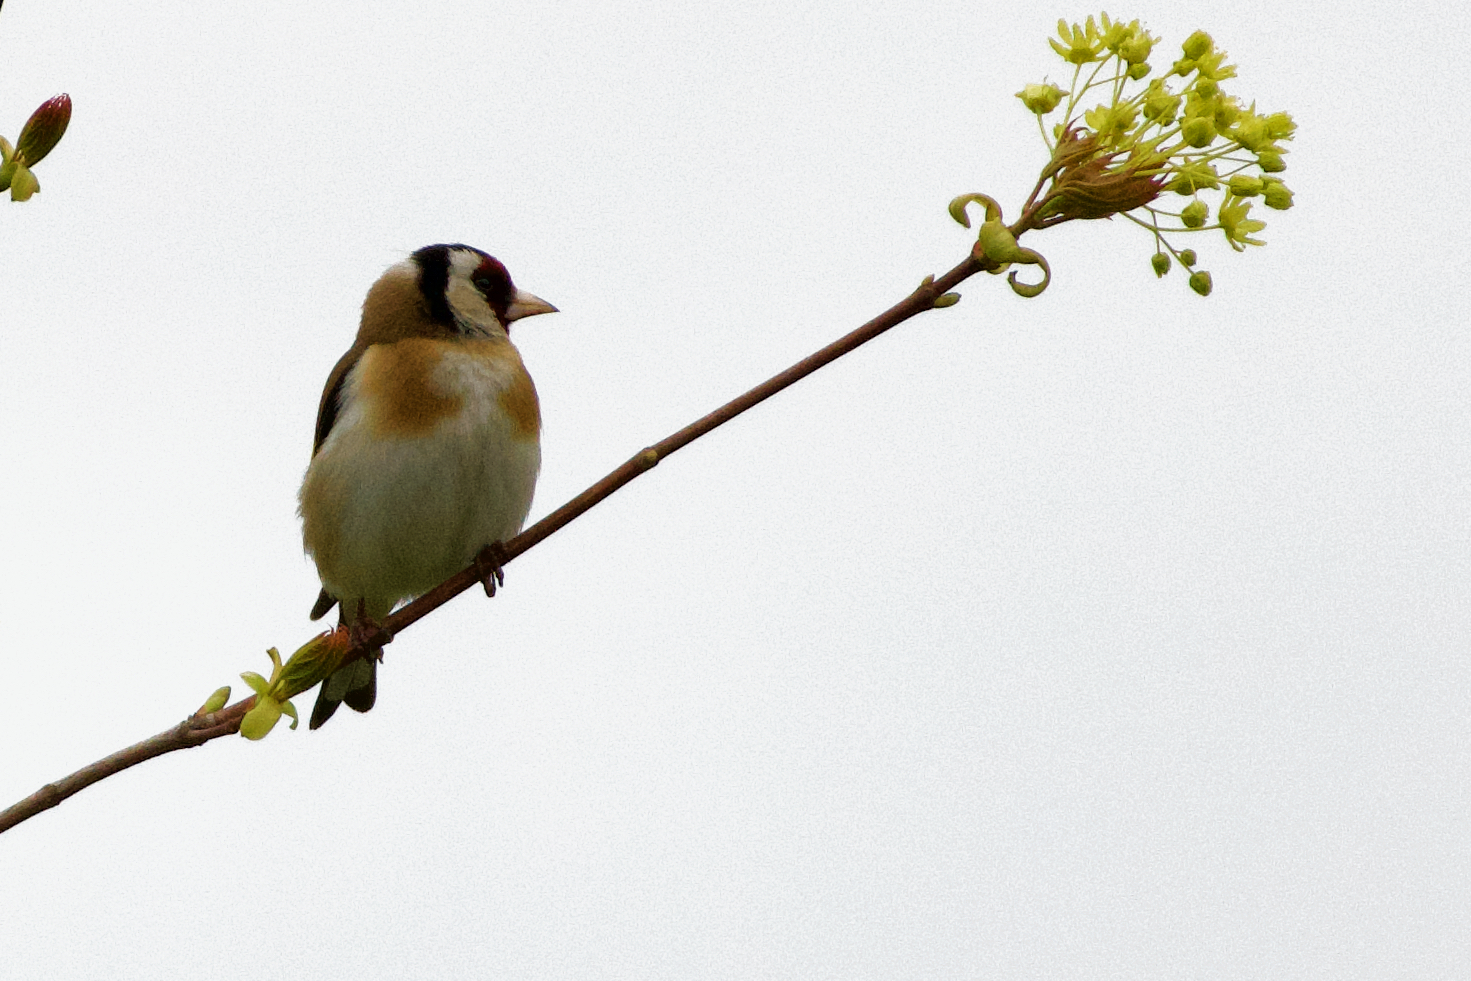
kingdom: Animalia
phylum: Chordata
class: Aves
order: Passeriformes
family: Fringillidae
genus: Carduelis
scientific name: Carduelis carduelis
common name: European goldfinch
